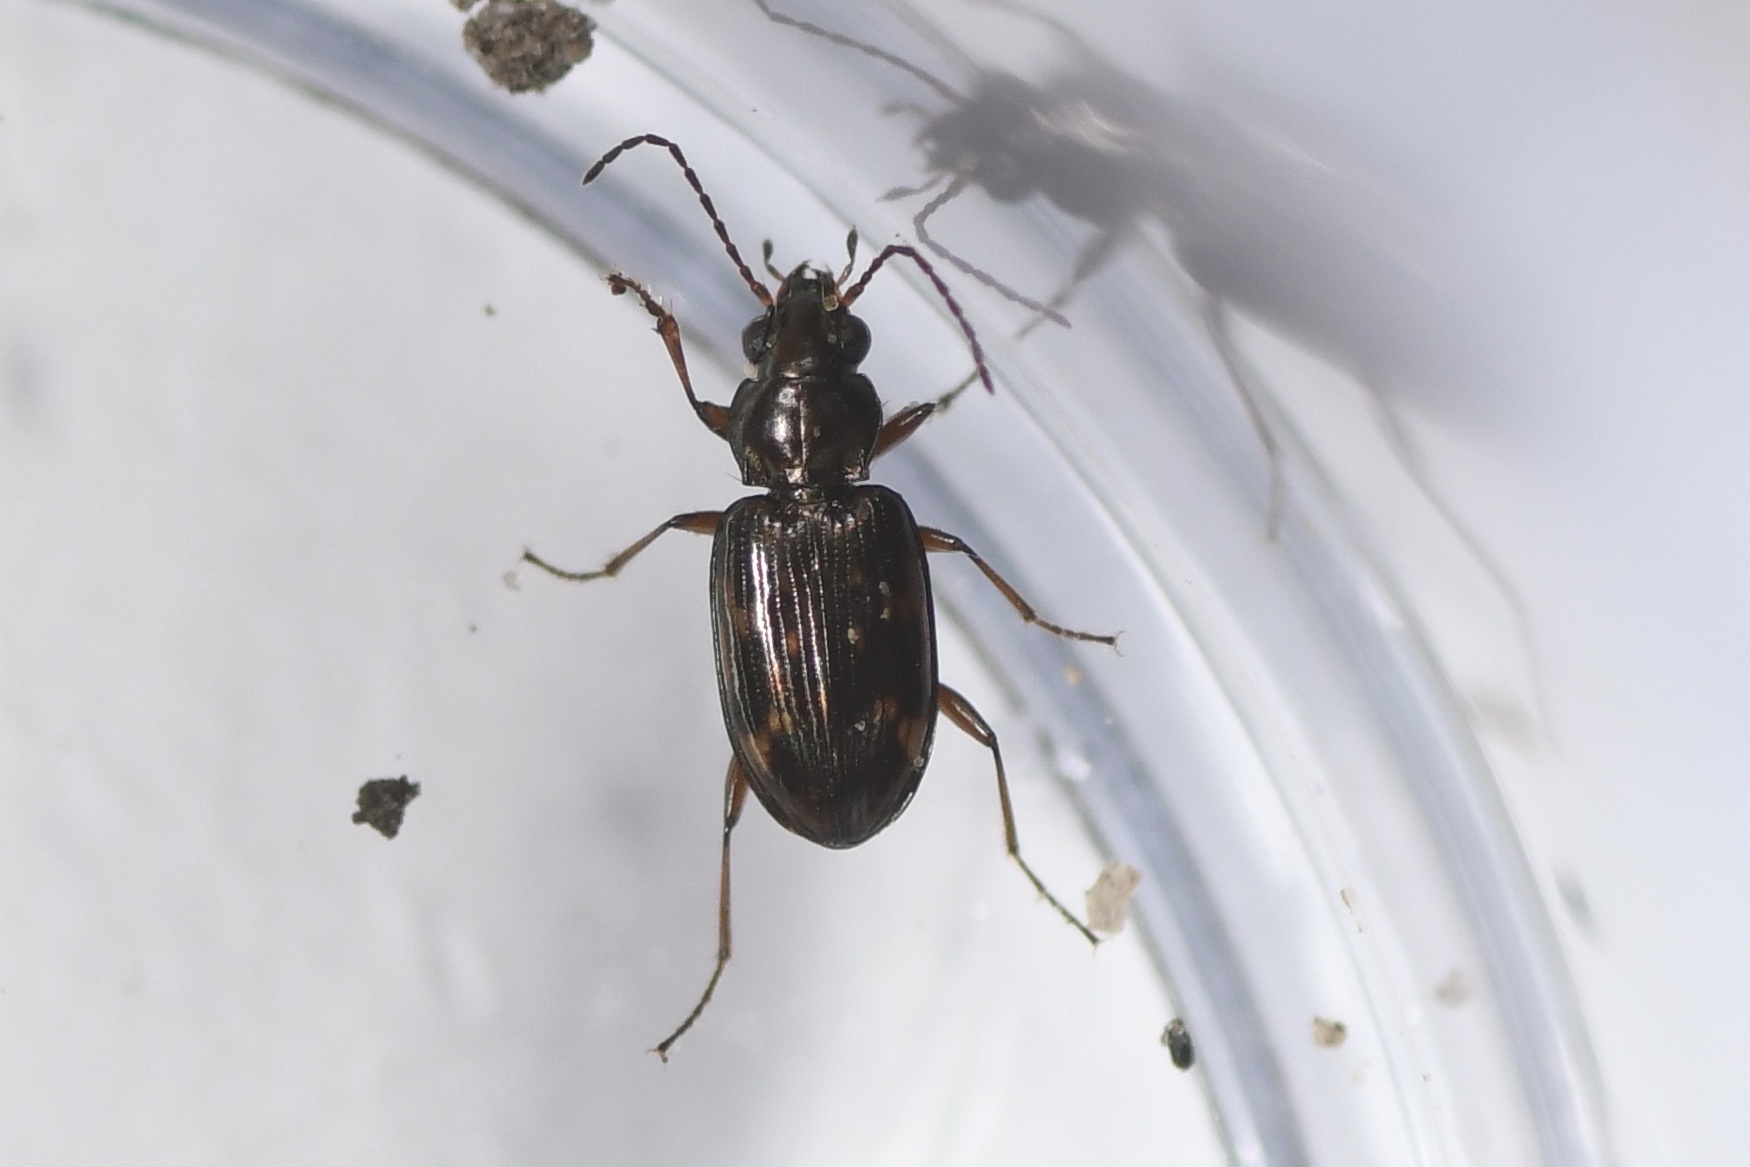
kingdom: Animalia
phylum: Arthropoda
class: Insecta
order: Coleoptera
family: Carabidae
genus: Bembidion
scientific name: Bembidion patruele
